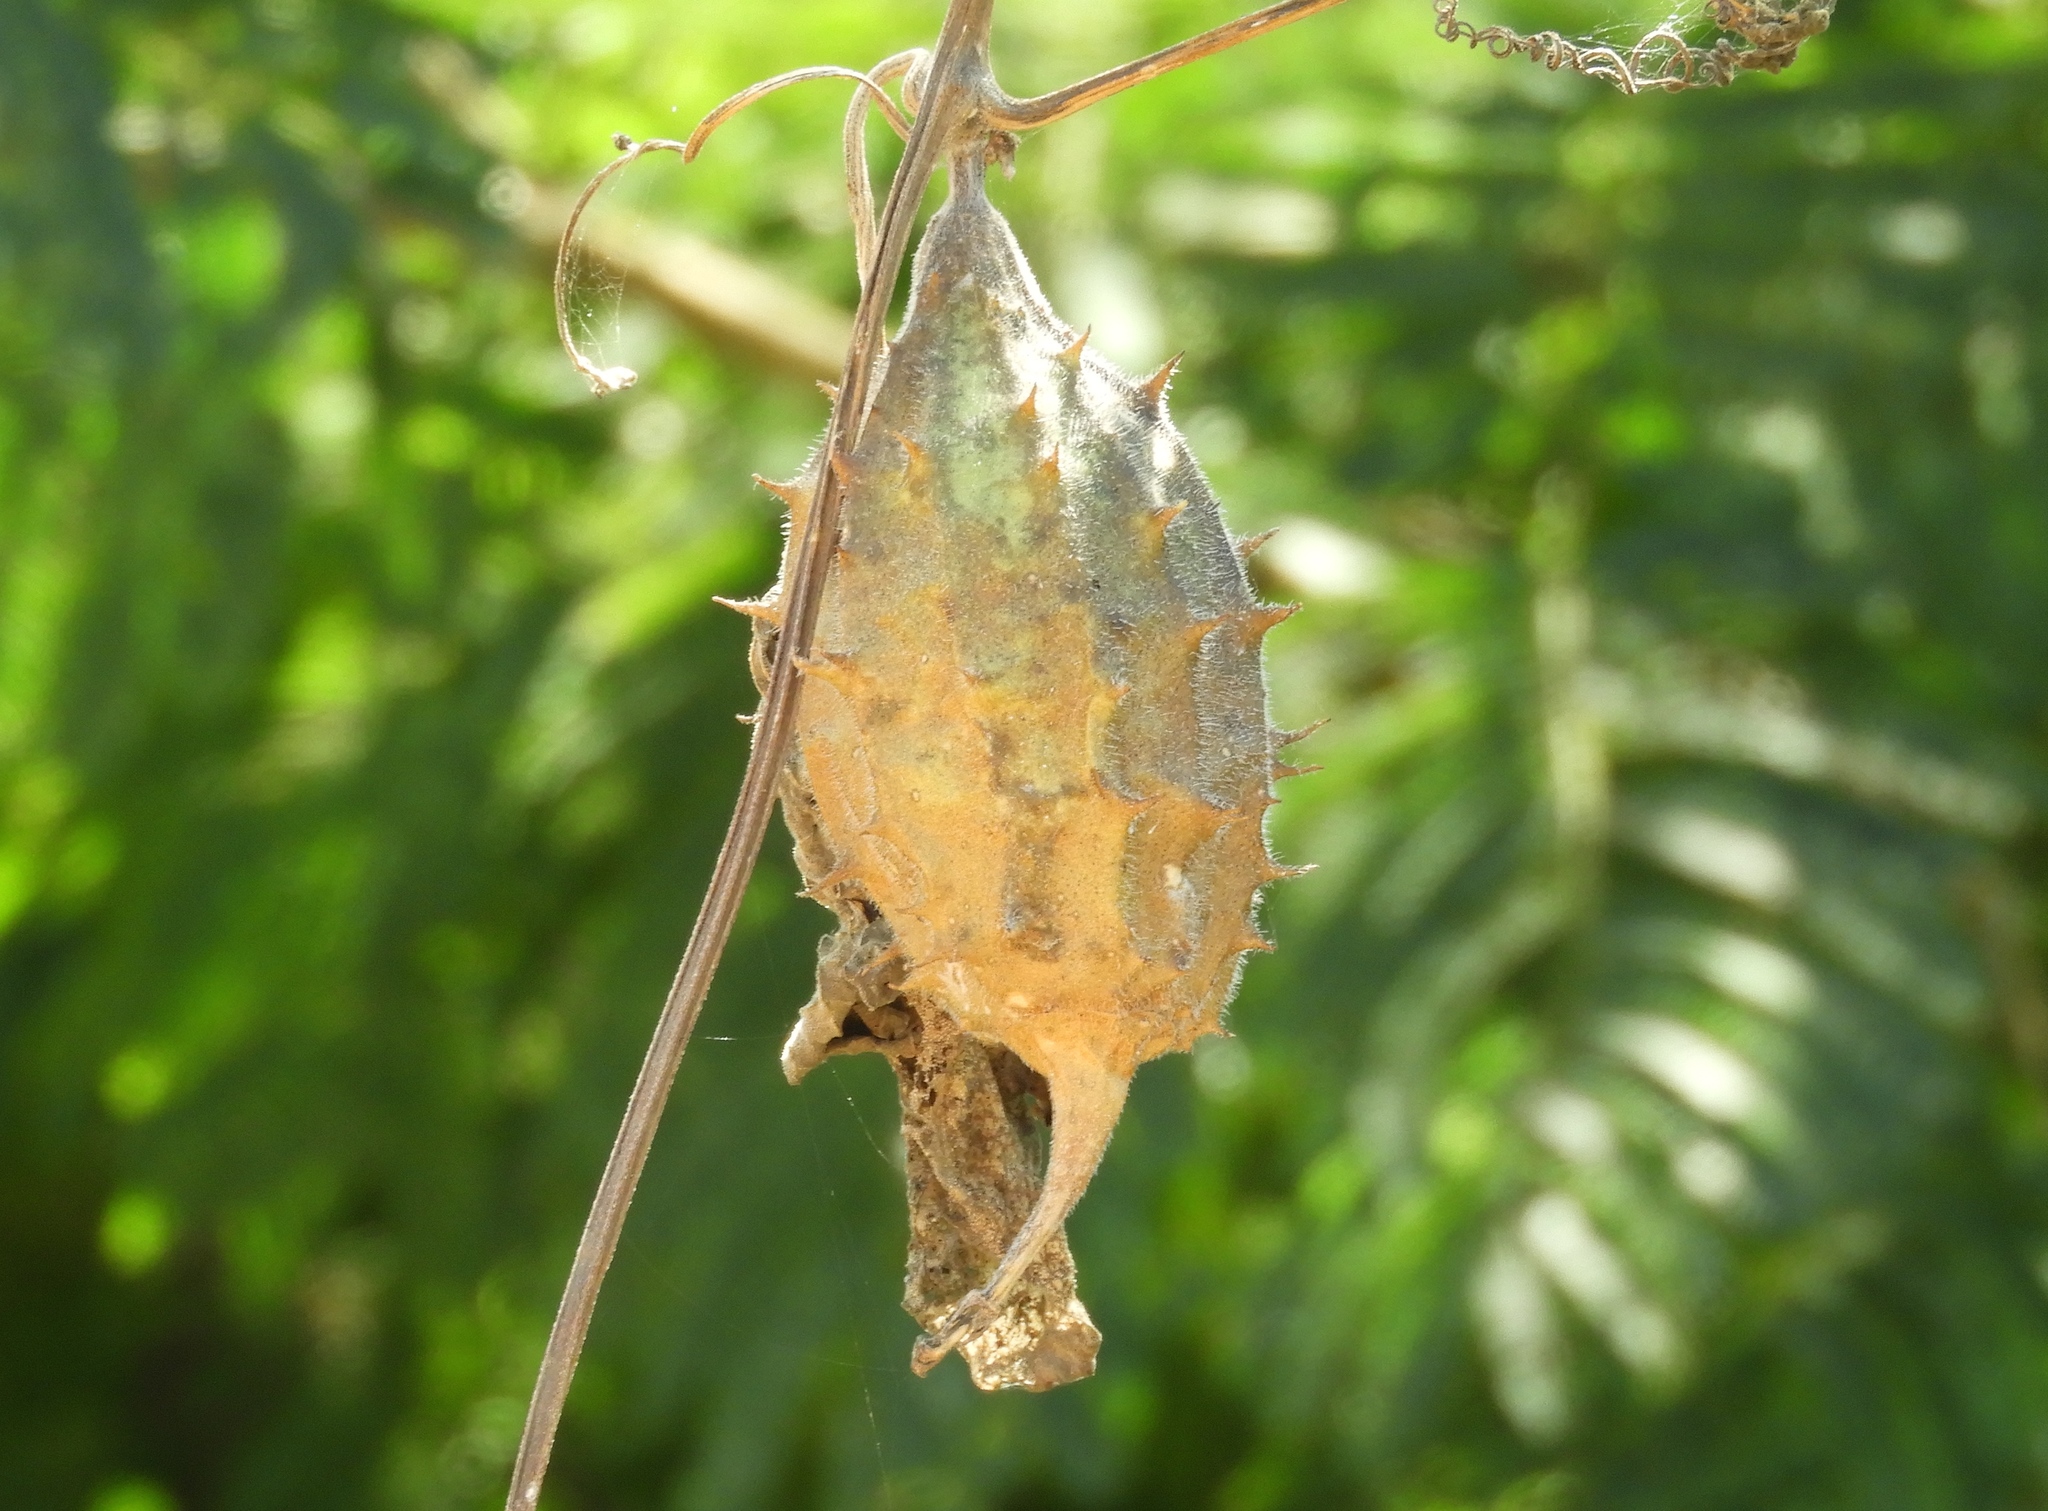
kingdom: Plantae
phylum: Tracheophyta
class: Magnoliopsida
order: Cucurbitales
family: Cucurbitaceae
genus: Luffa
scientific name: Luffa operculata
